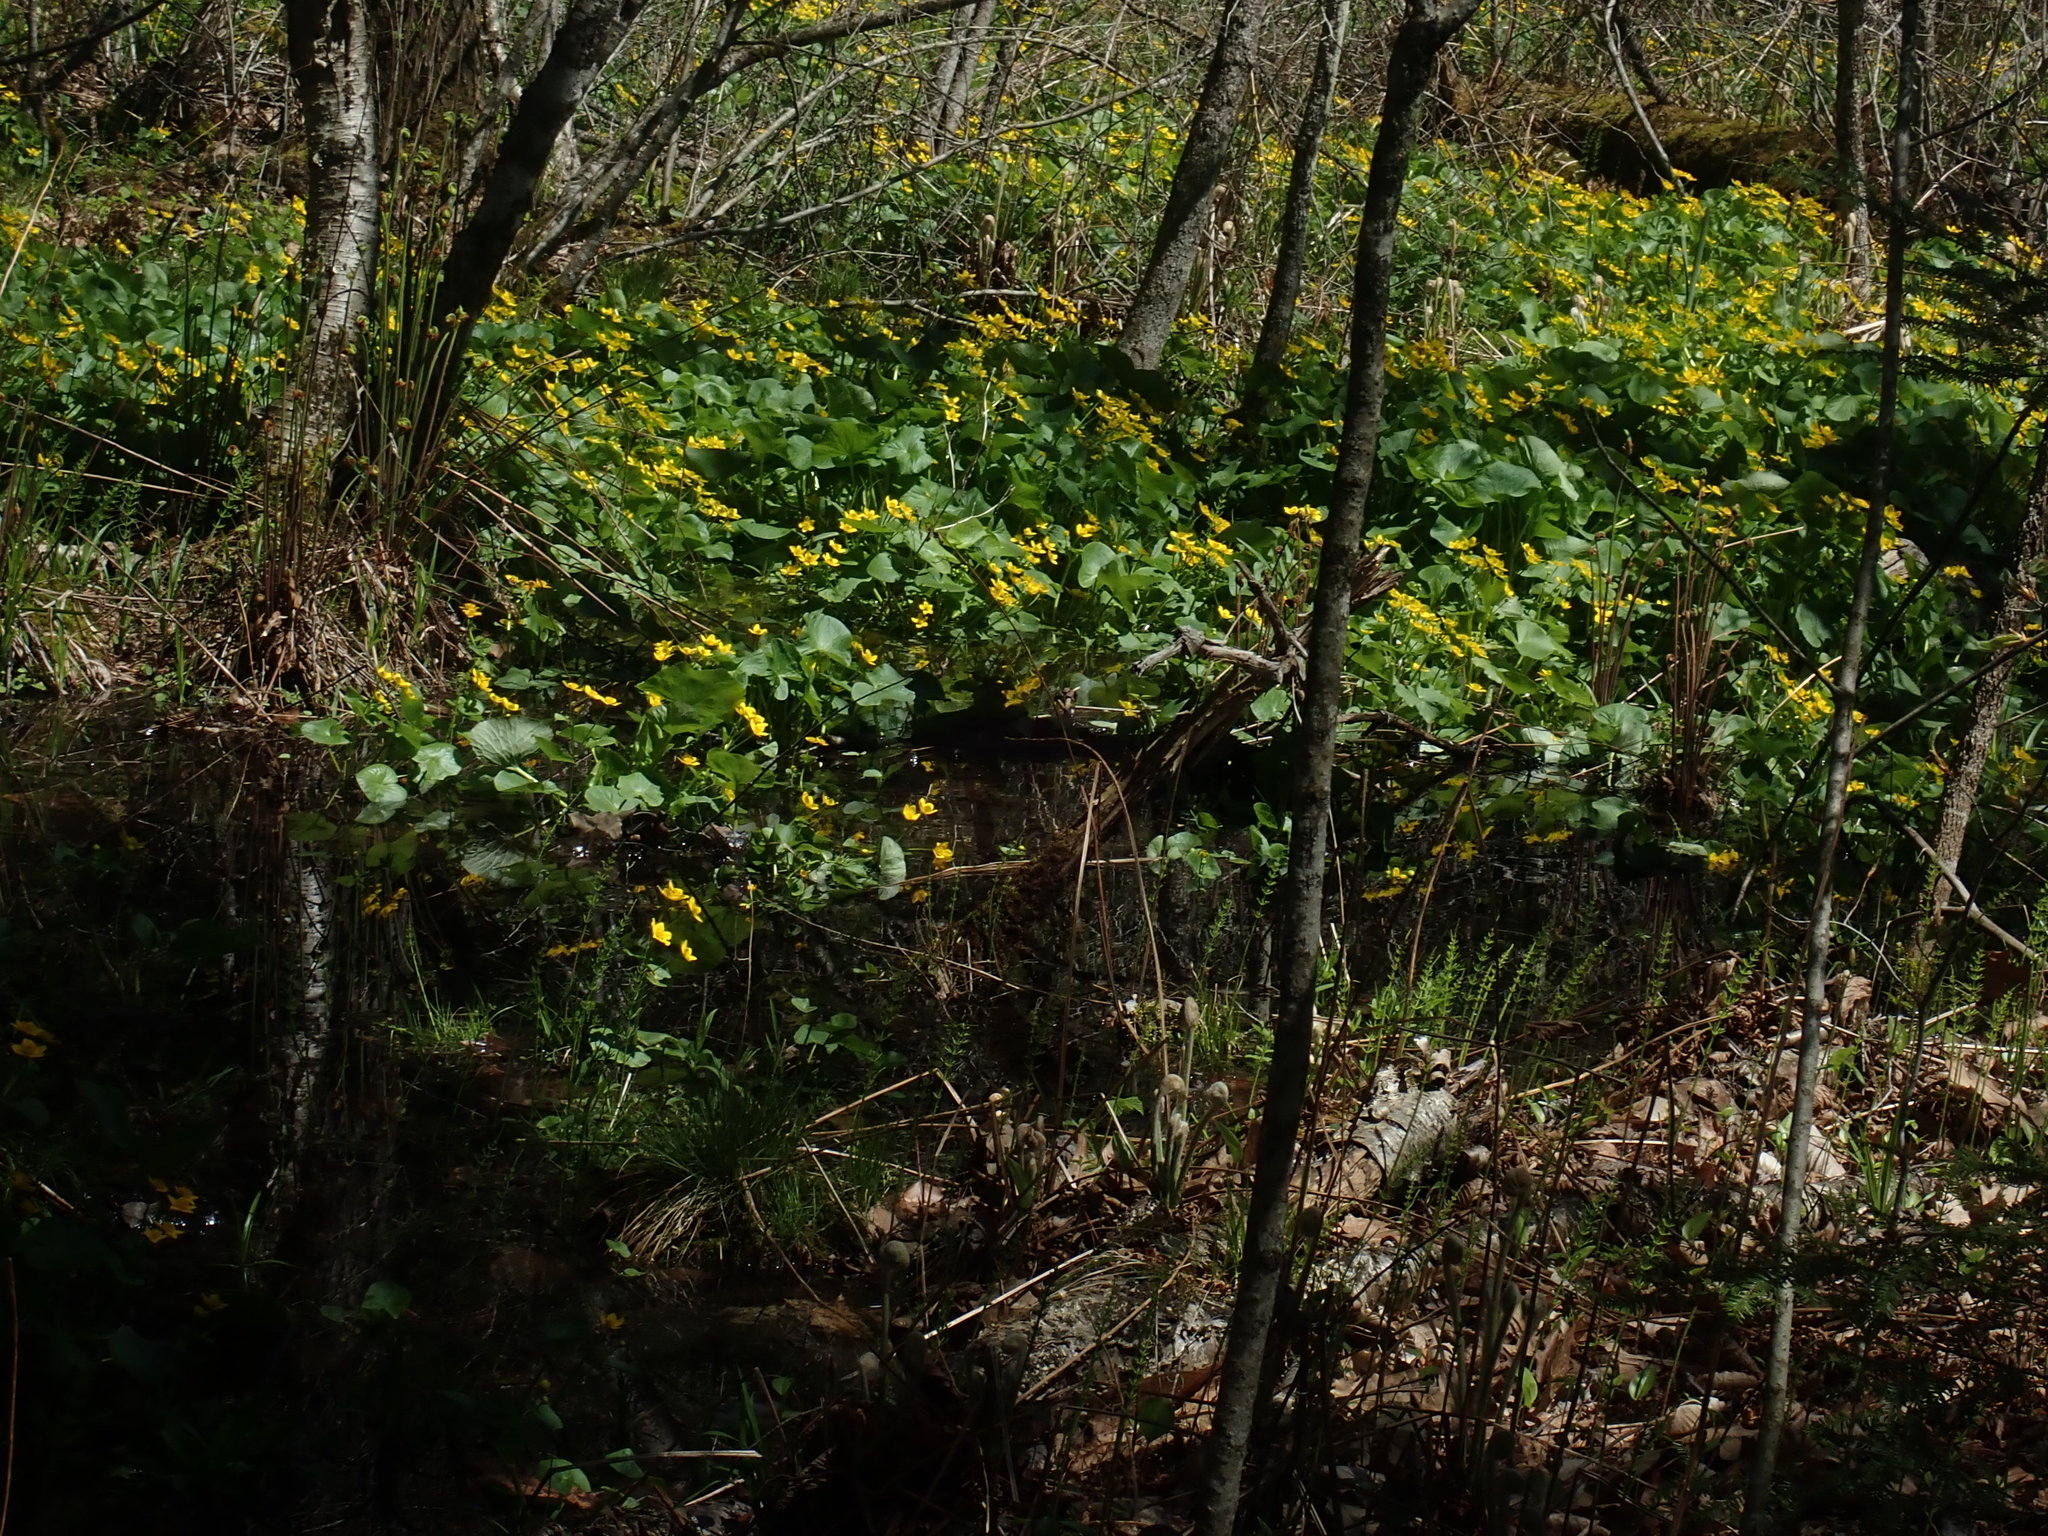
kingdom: Plantae
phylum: Tracheophyta
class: Magnoliopsida
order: Ranunculales
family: Ranunculaceae
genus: Caltha
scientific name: Caltha palustris
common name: Marsh marigold
